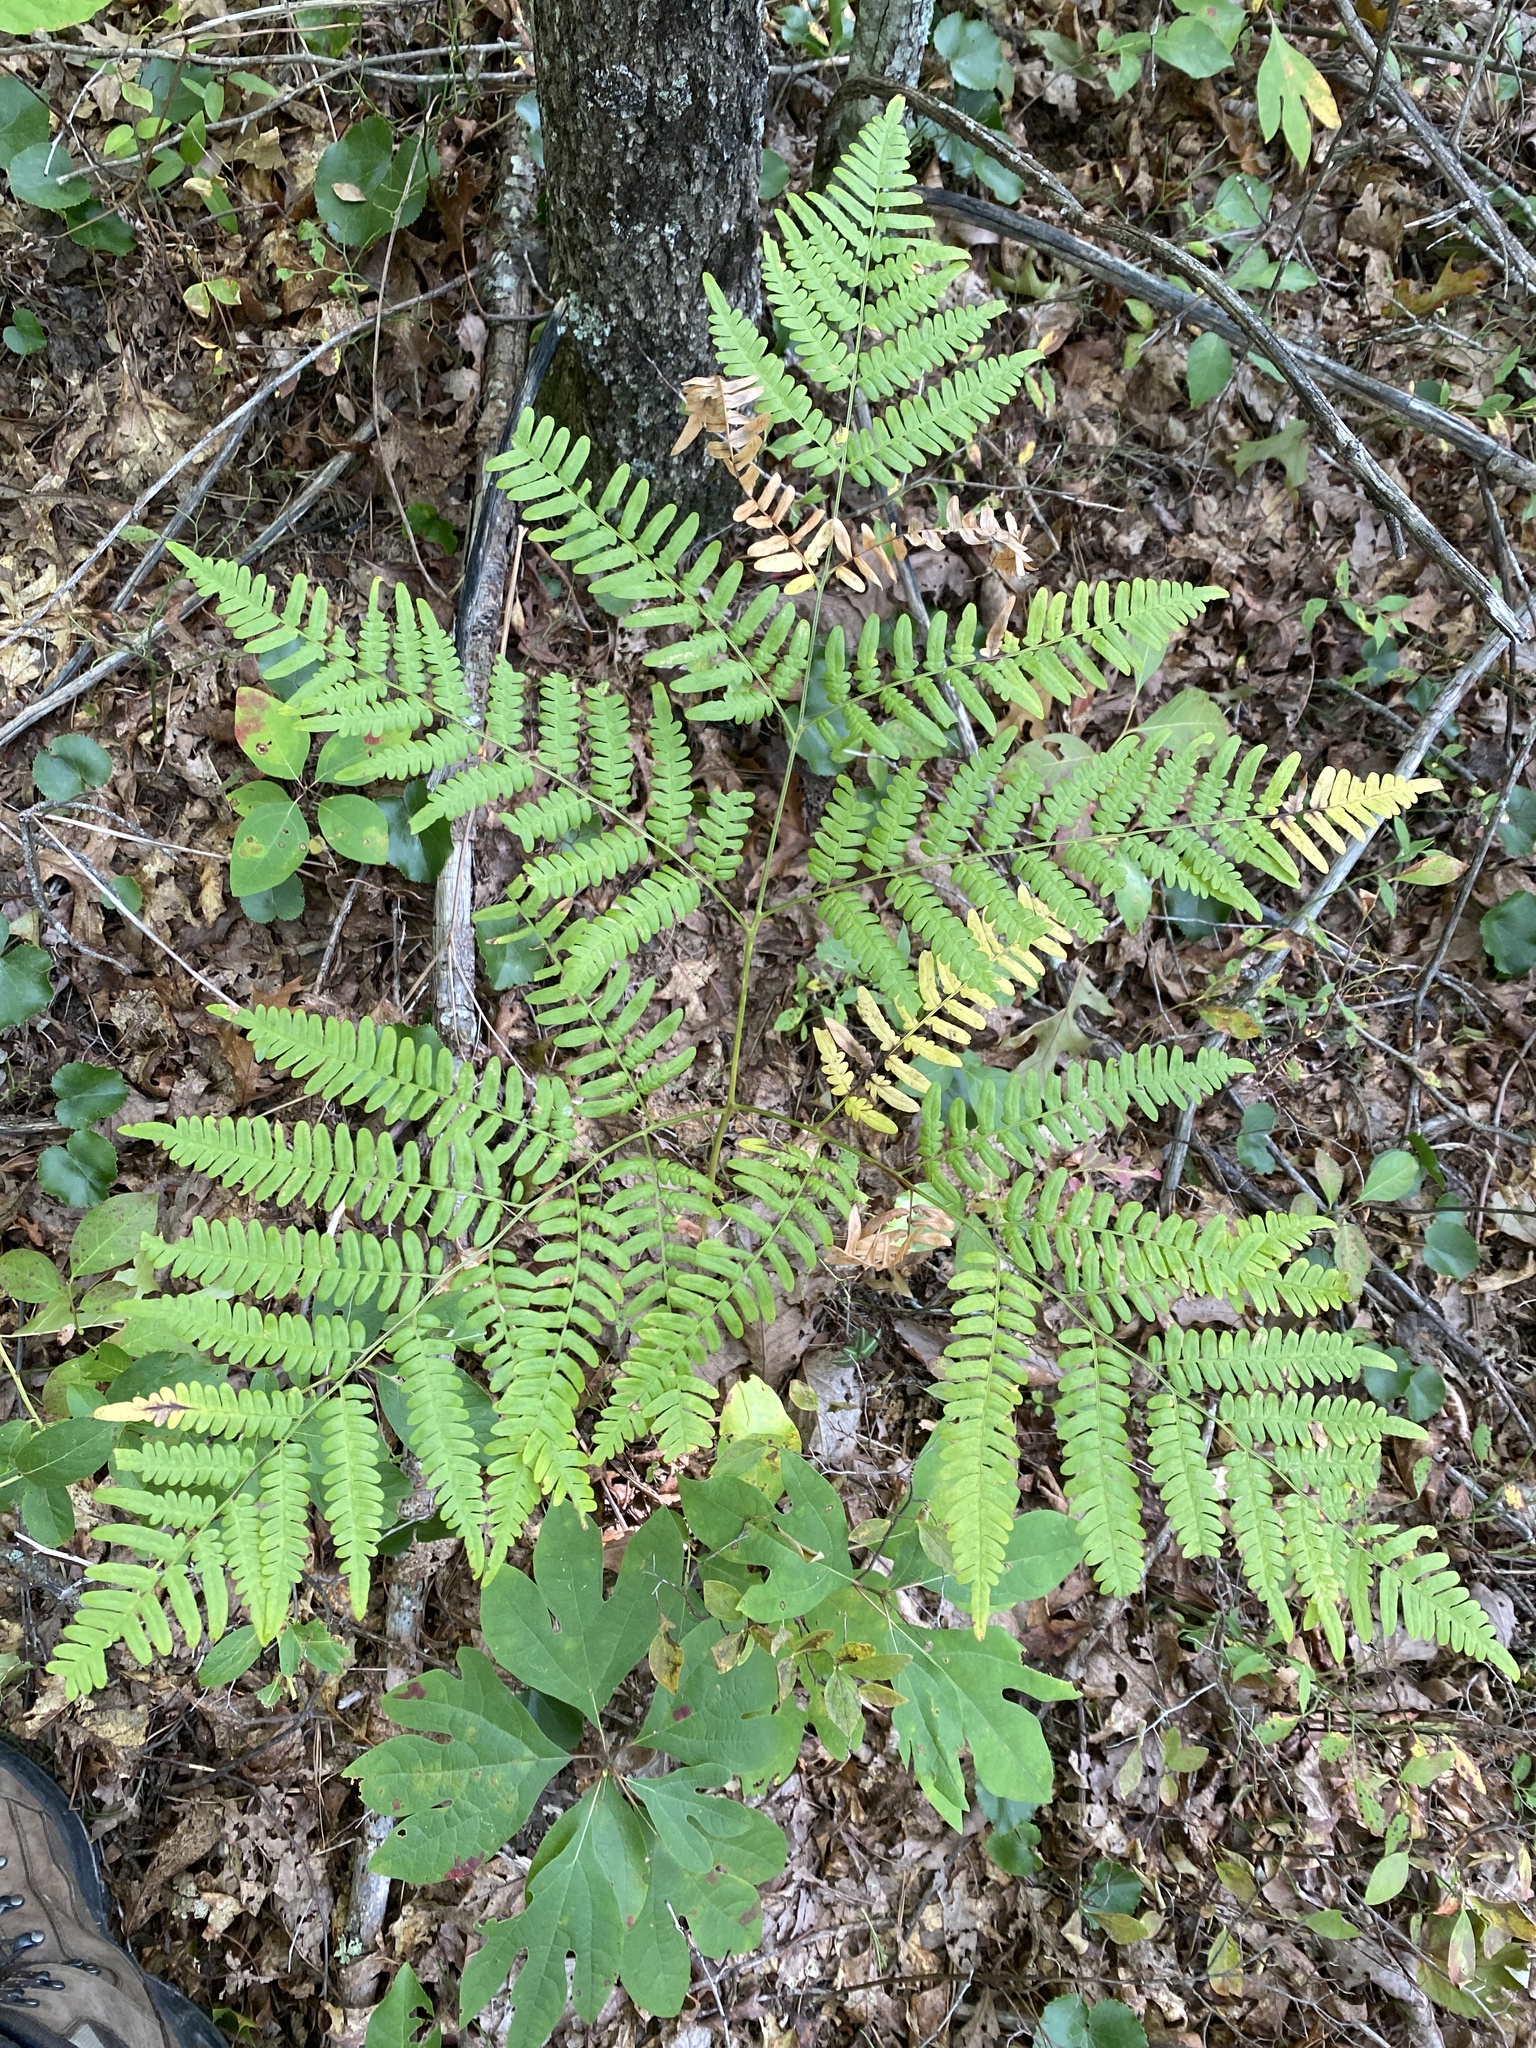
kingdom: Plantae
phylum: Tracheophyta
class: Polypodiopsida
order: Polypodiales
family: Dennstaedtiaceae
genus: Pteridium
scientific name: Pteridium aquilinum
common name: Bracken
